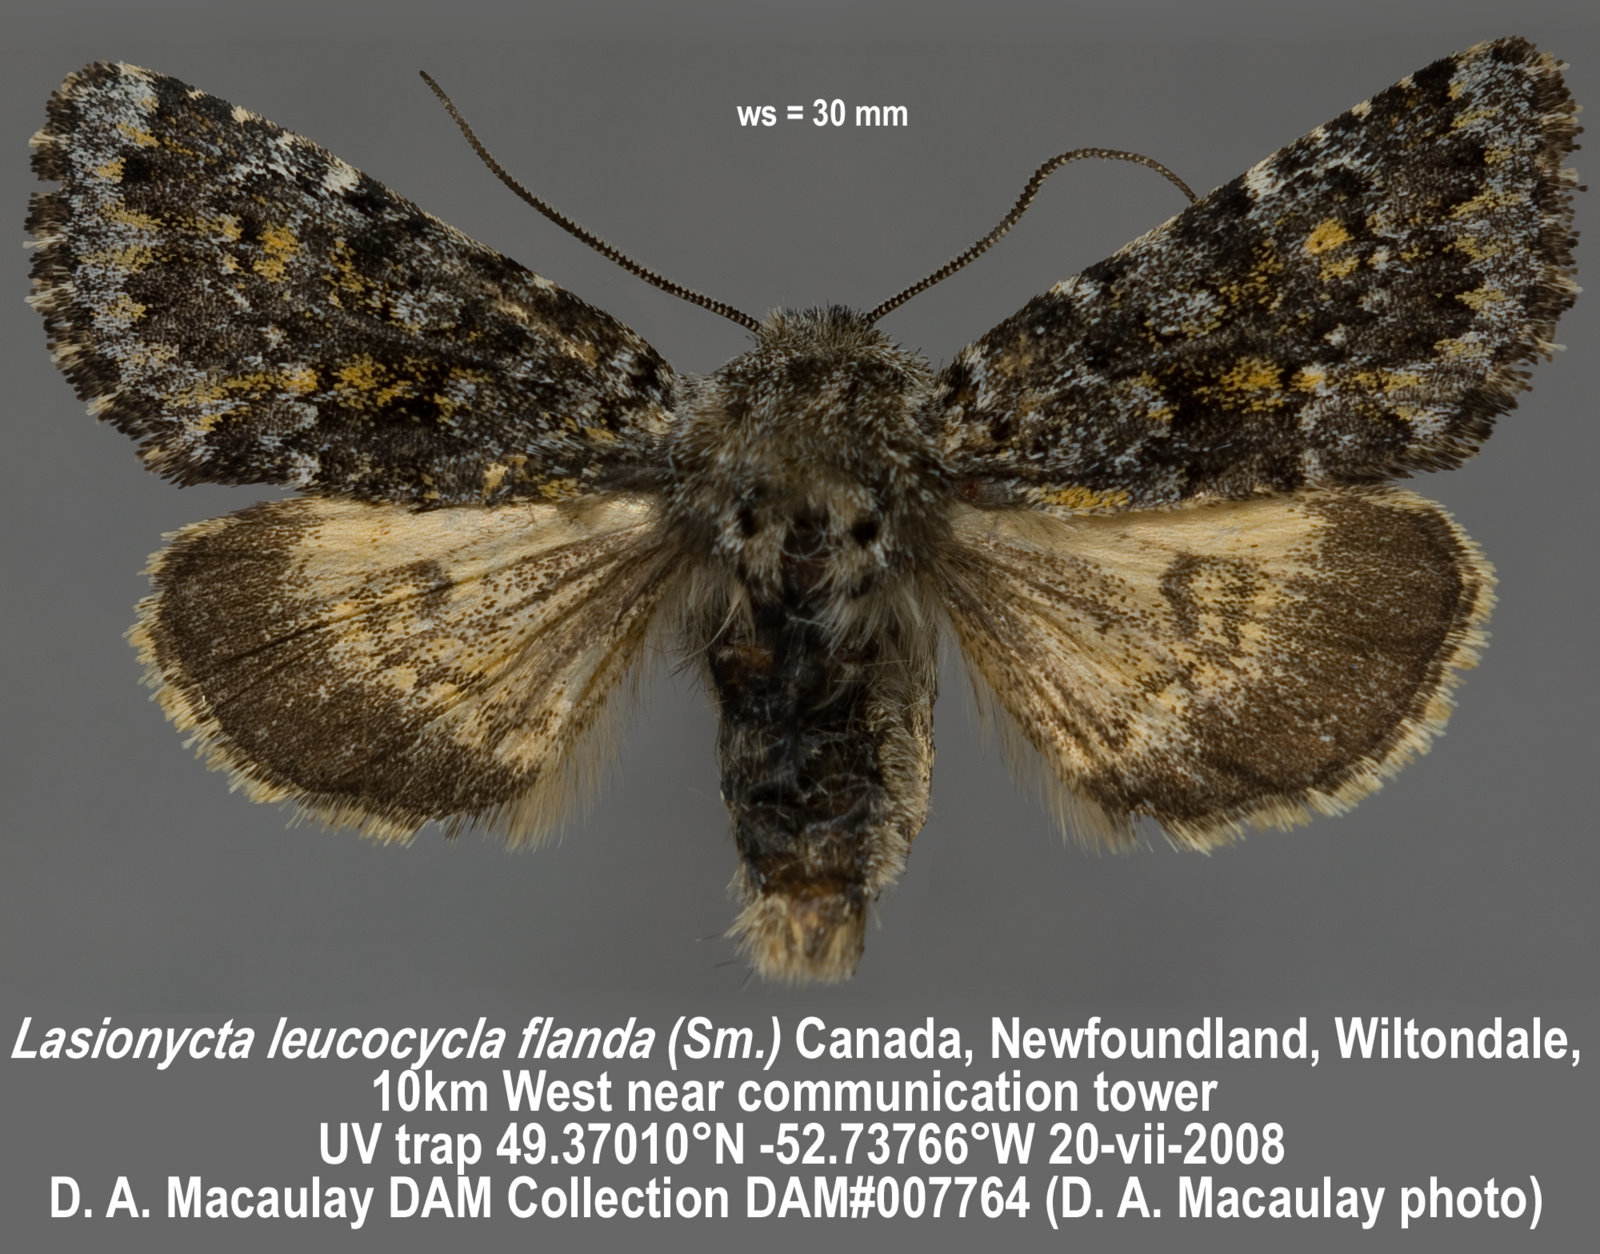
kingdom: Animalia
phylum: Arthropoda
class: Insecta
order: Lepidoptera
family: Noctuidae
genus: Lasionycta
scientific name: Lasionycta flanda
